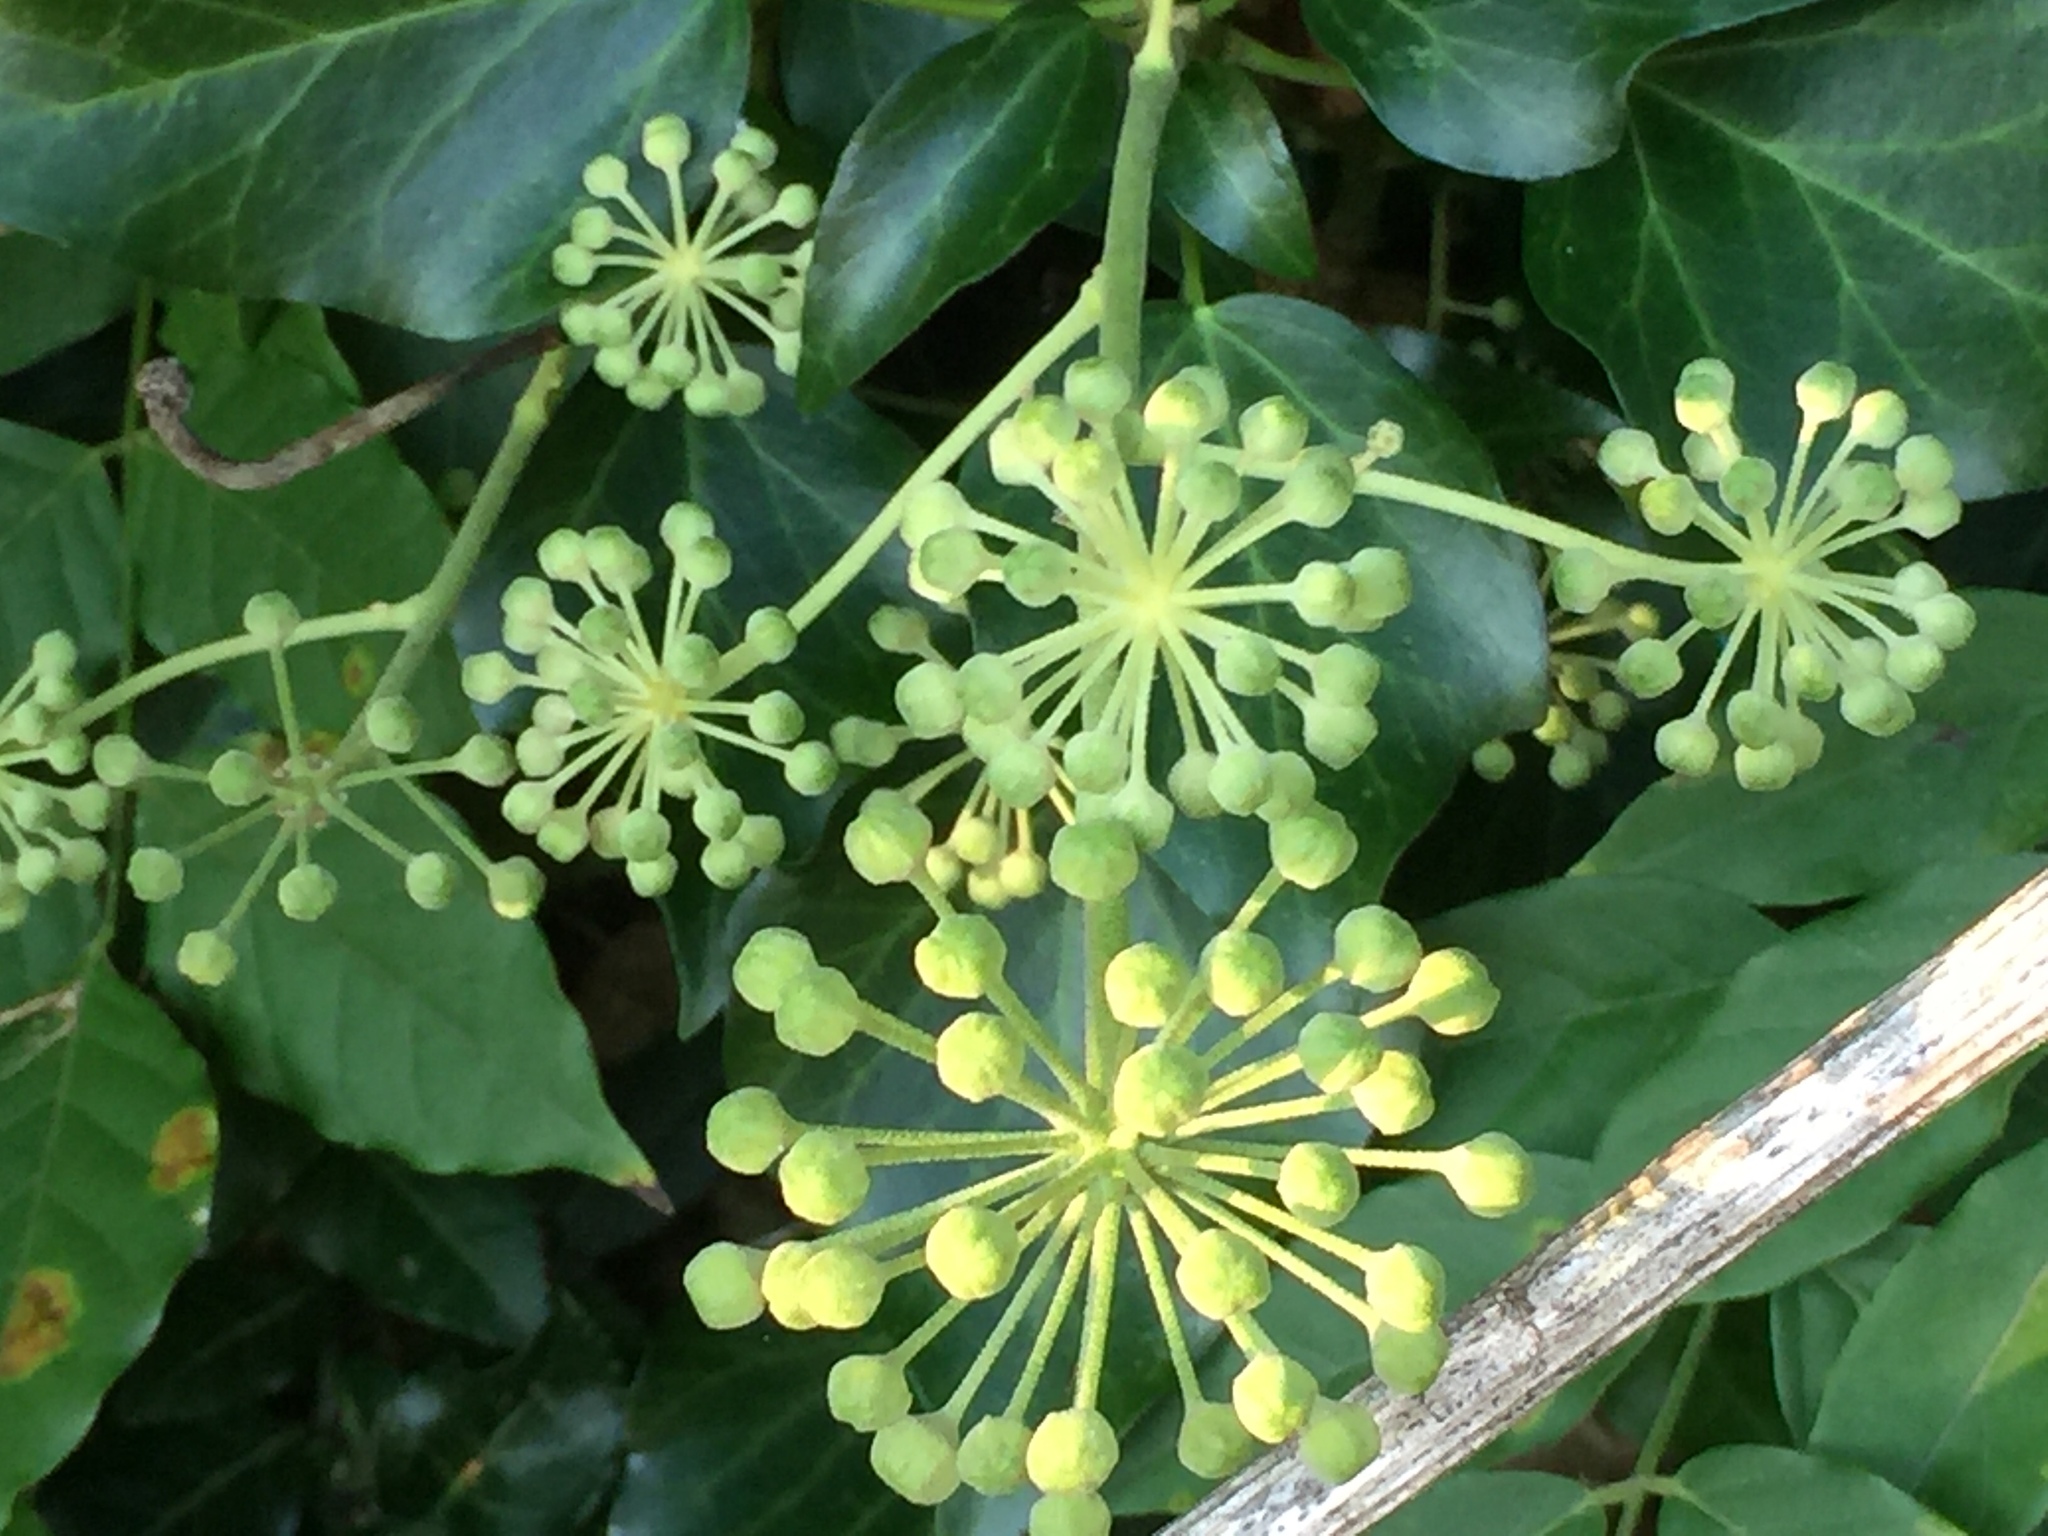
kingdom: Plantae
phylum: Tracheophyta
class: Magnoliopsida
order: Apiales
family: Araliaceae
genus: Hedera
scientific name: Hedera helix
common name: Ivy
